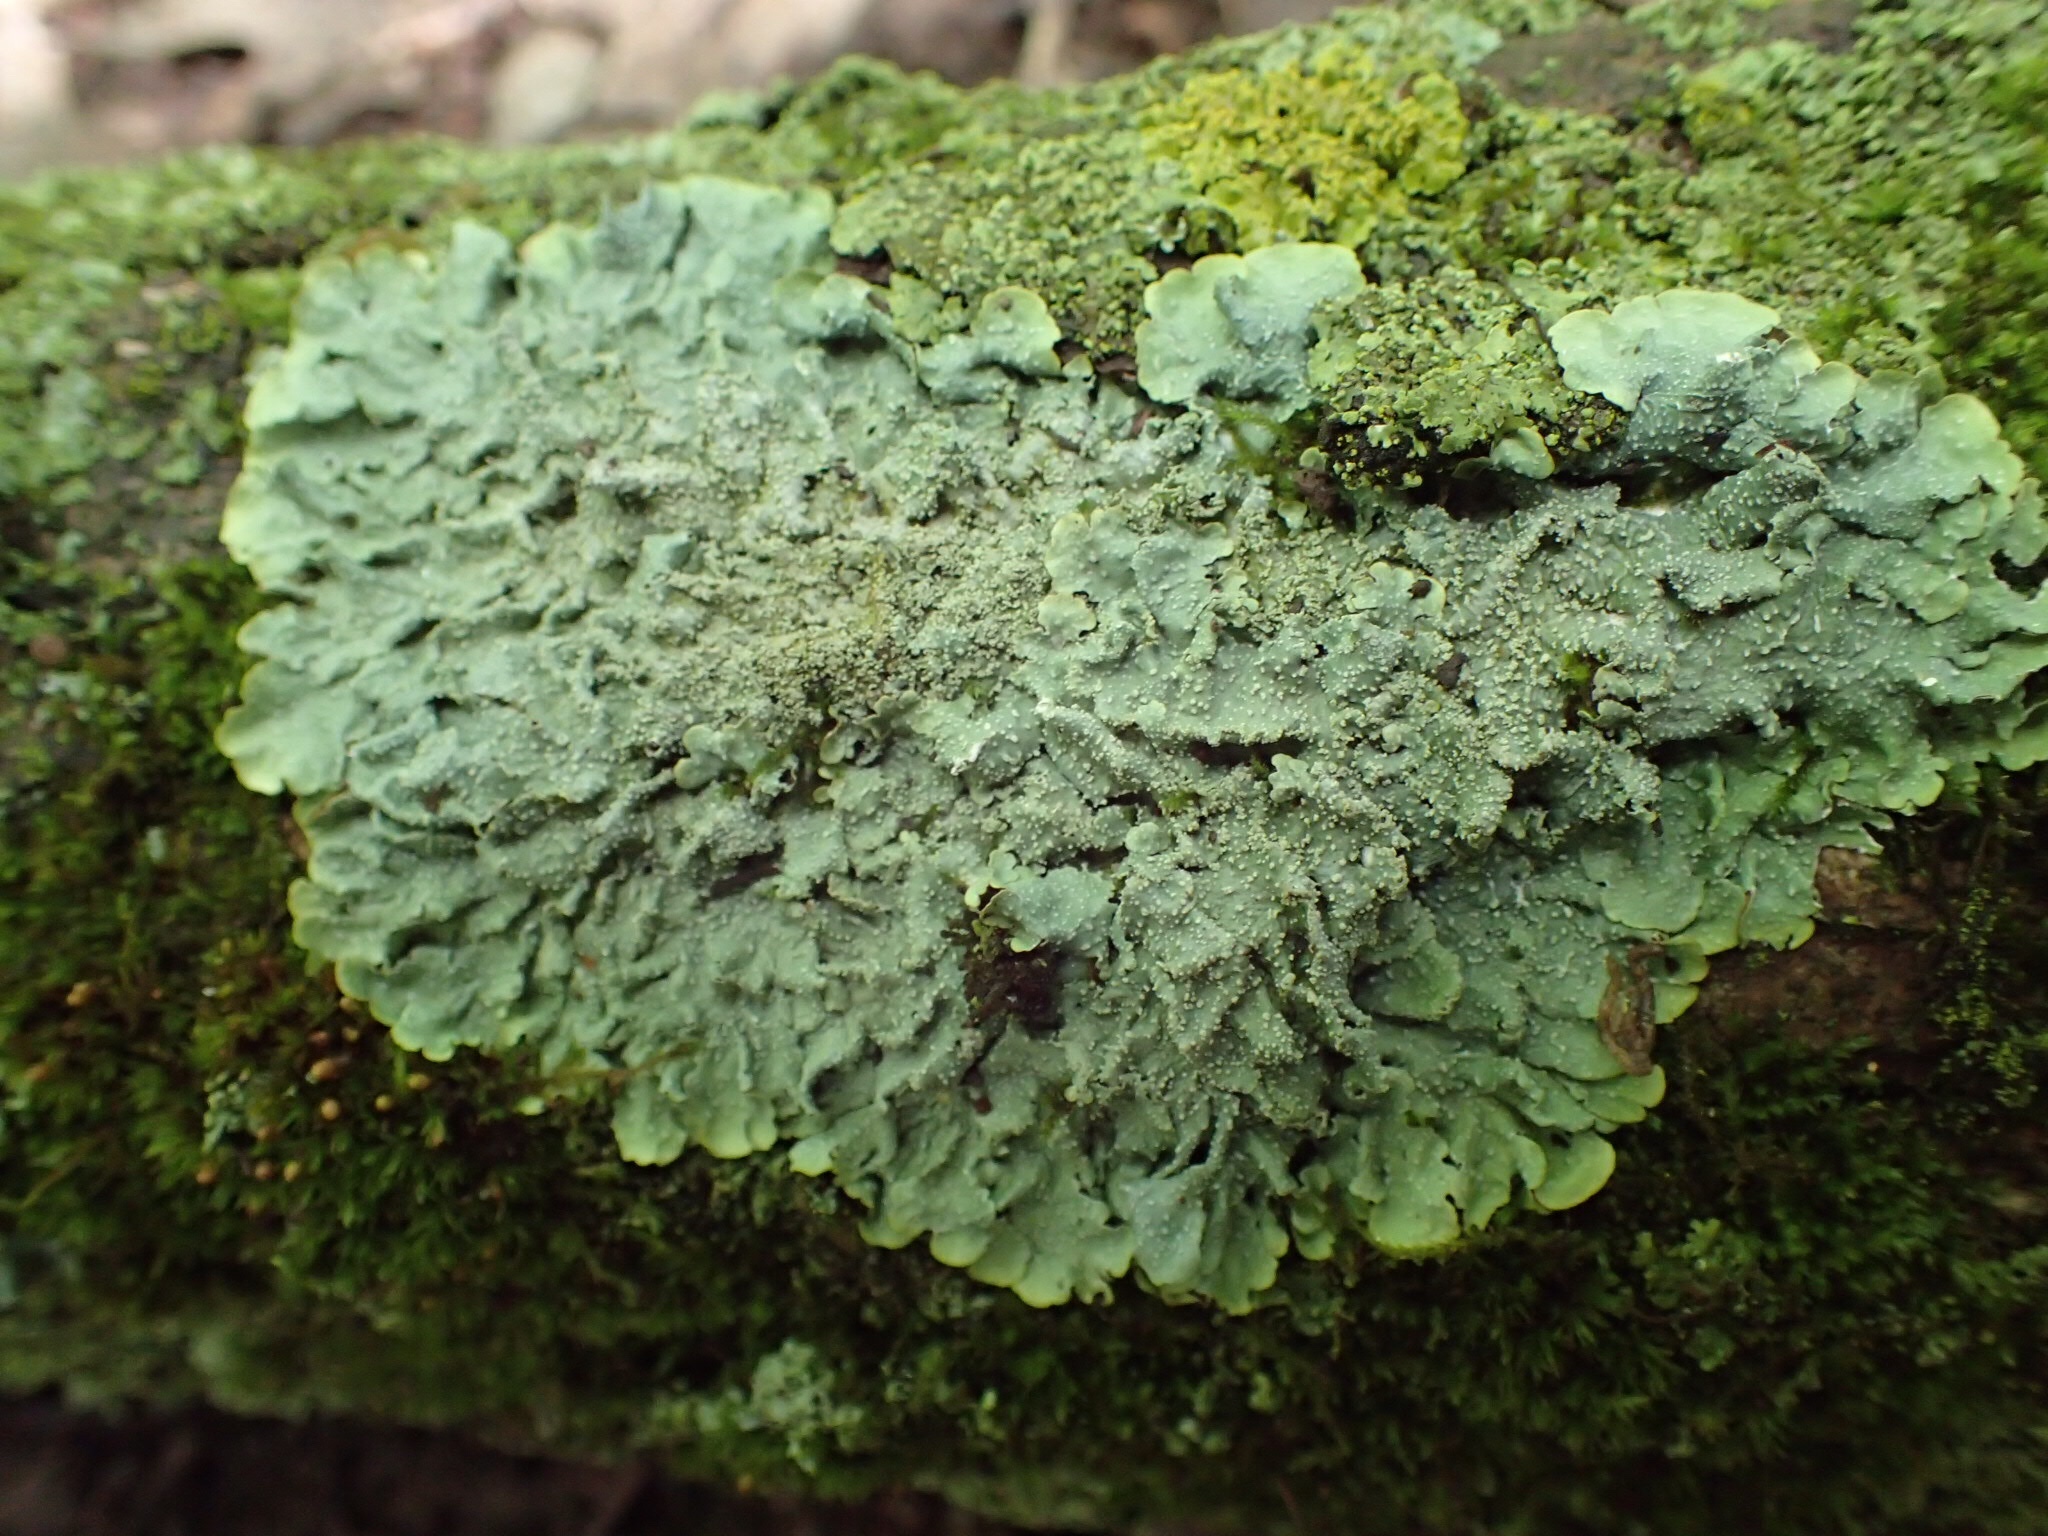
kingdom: Fungi
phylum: Ascomycota
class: Lecanoromycetes
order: Lecanorales
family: Parmeliaceae
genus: Punctelia
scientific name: Punctelia missouriensis
